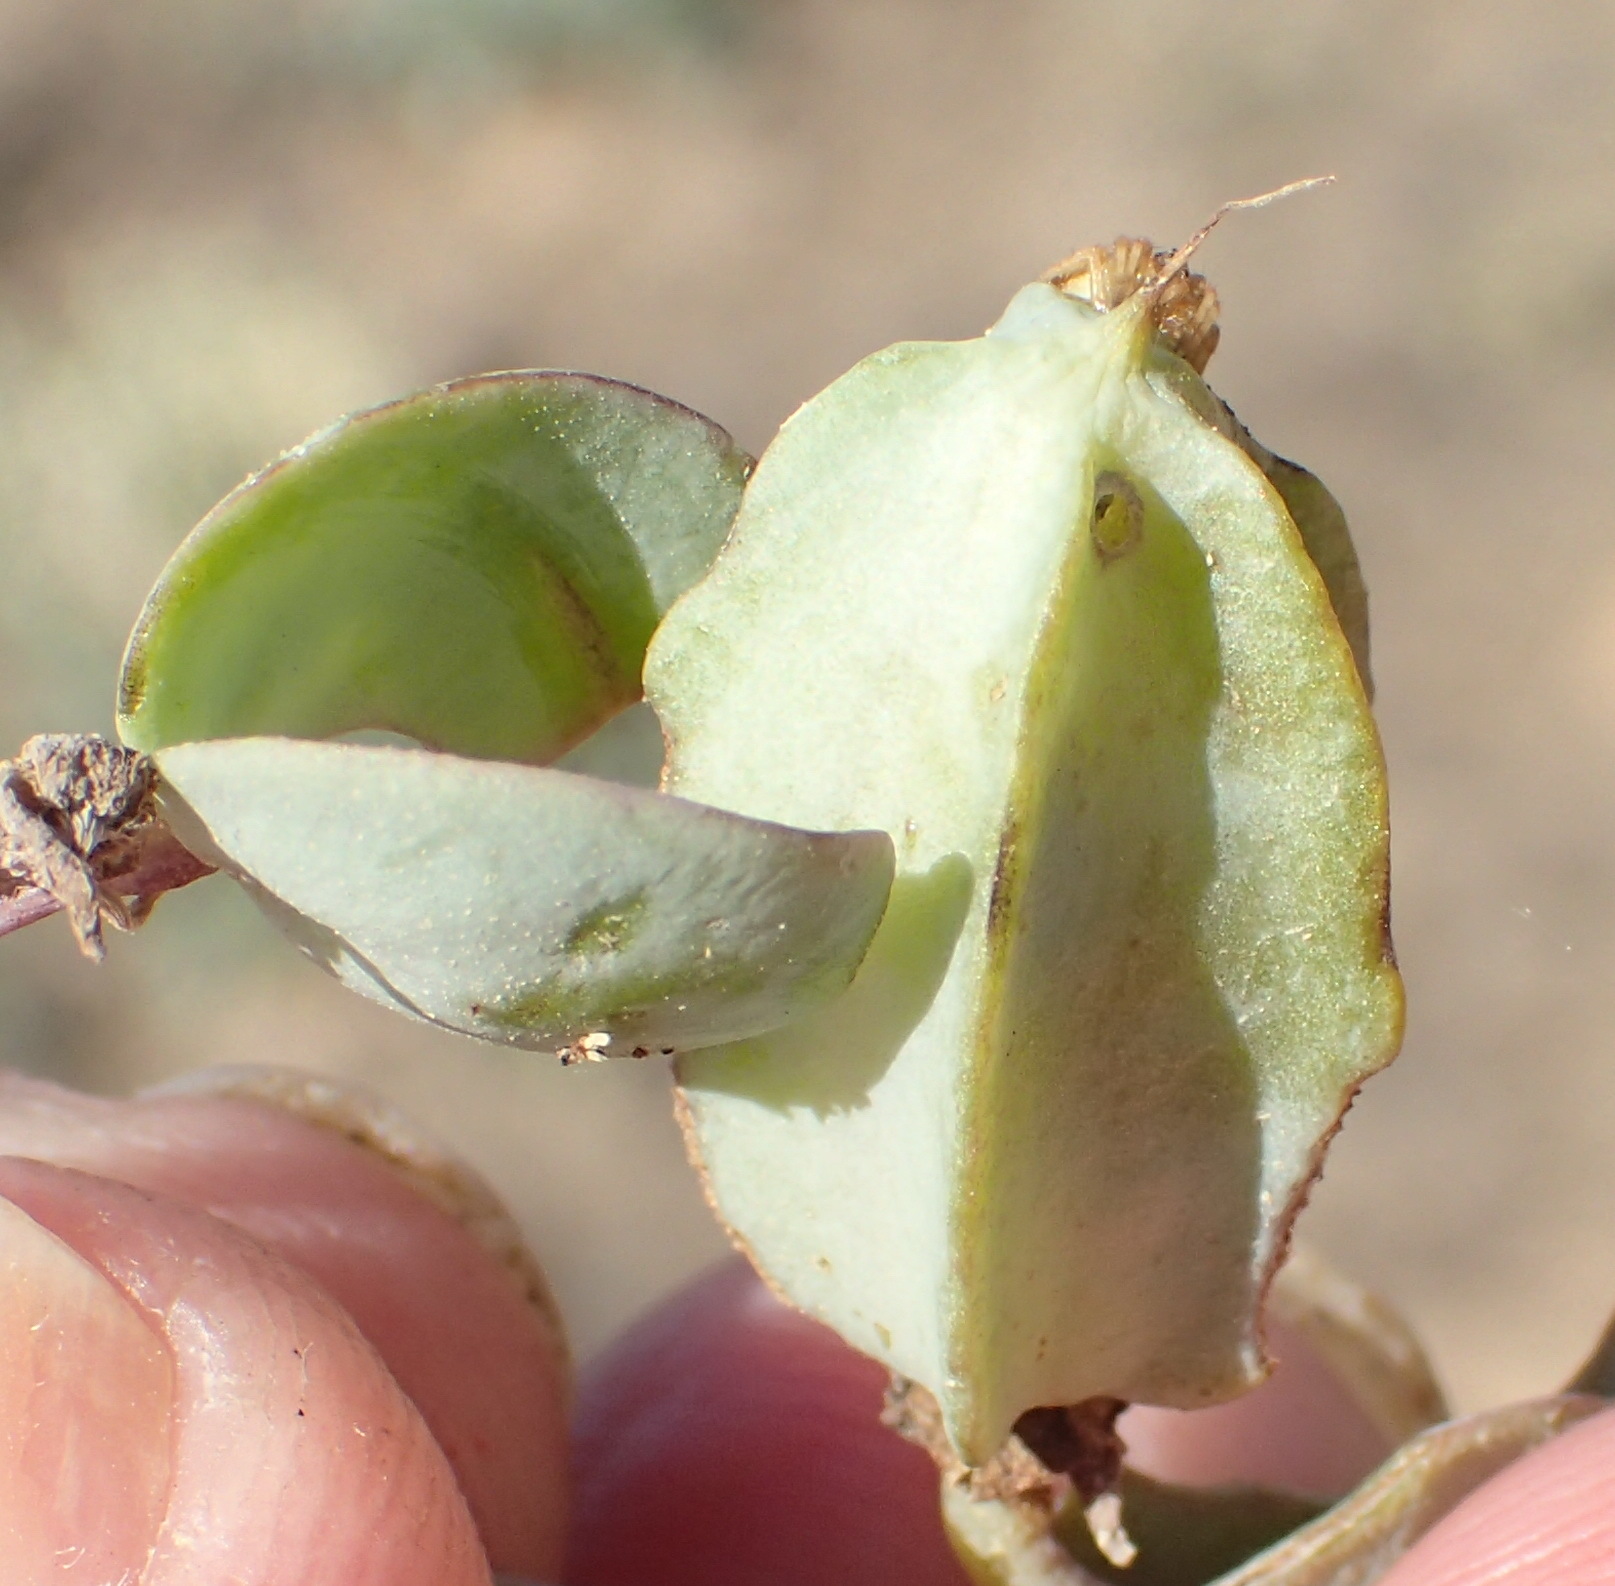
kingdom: Plantae
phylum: Tracheophyta
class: Magnoliopsida
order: Zygophyllales
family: Zygophyllaceae
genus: Roepera
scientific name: Roepera cordifolia
